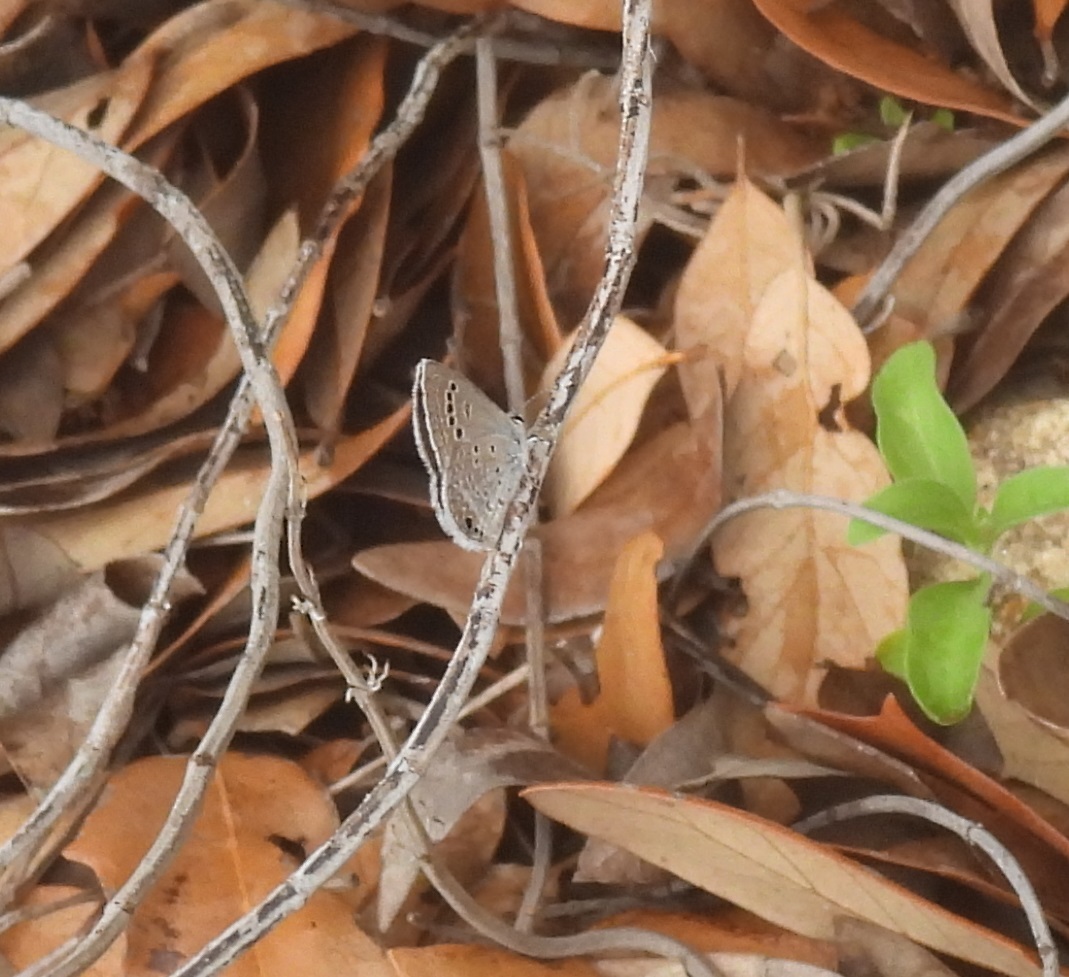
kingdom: Animalia
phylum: Arthropoda
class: Insecta
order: Lepidoptera
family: Lycaenidae
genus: Echinargus
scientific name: Echinargus isola
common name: Reakirt's blue
